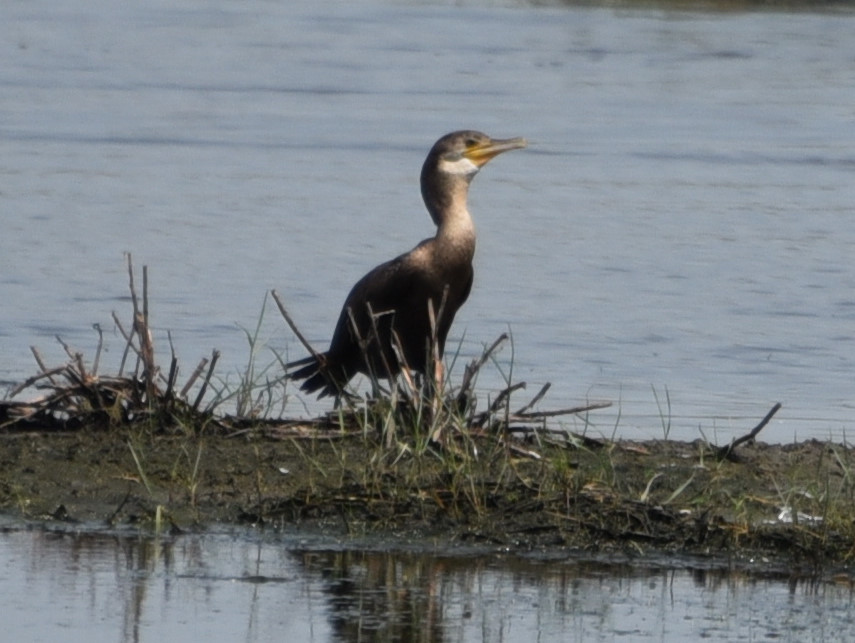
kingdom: Animalia
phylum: Chordata
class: Aves
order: Suliformes
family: Phalacrocoracidae
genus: Phalacrocorax
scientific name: Phalacrocorax auritus
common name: Double-crested cormorant
